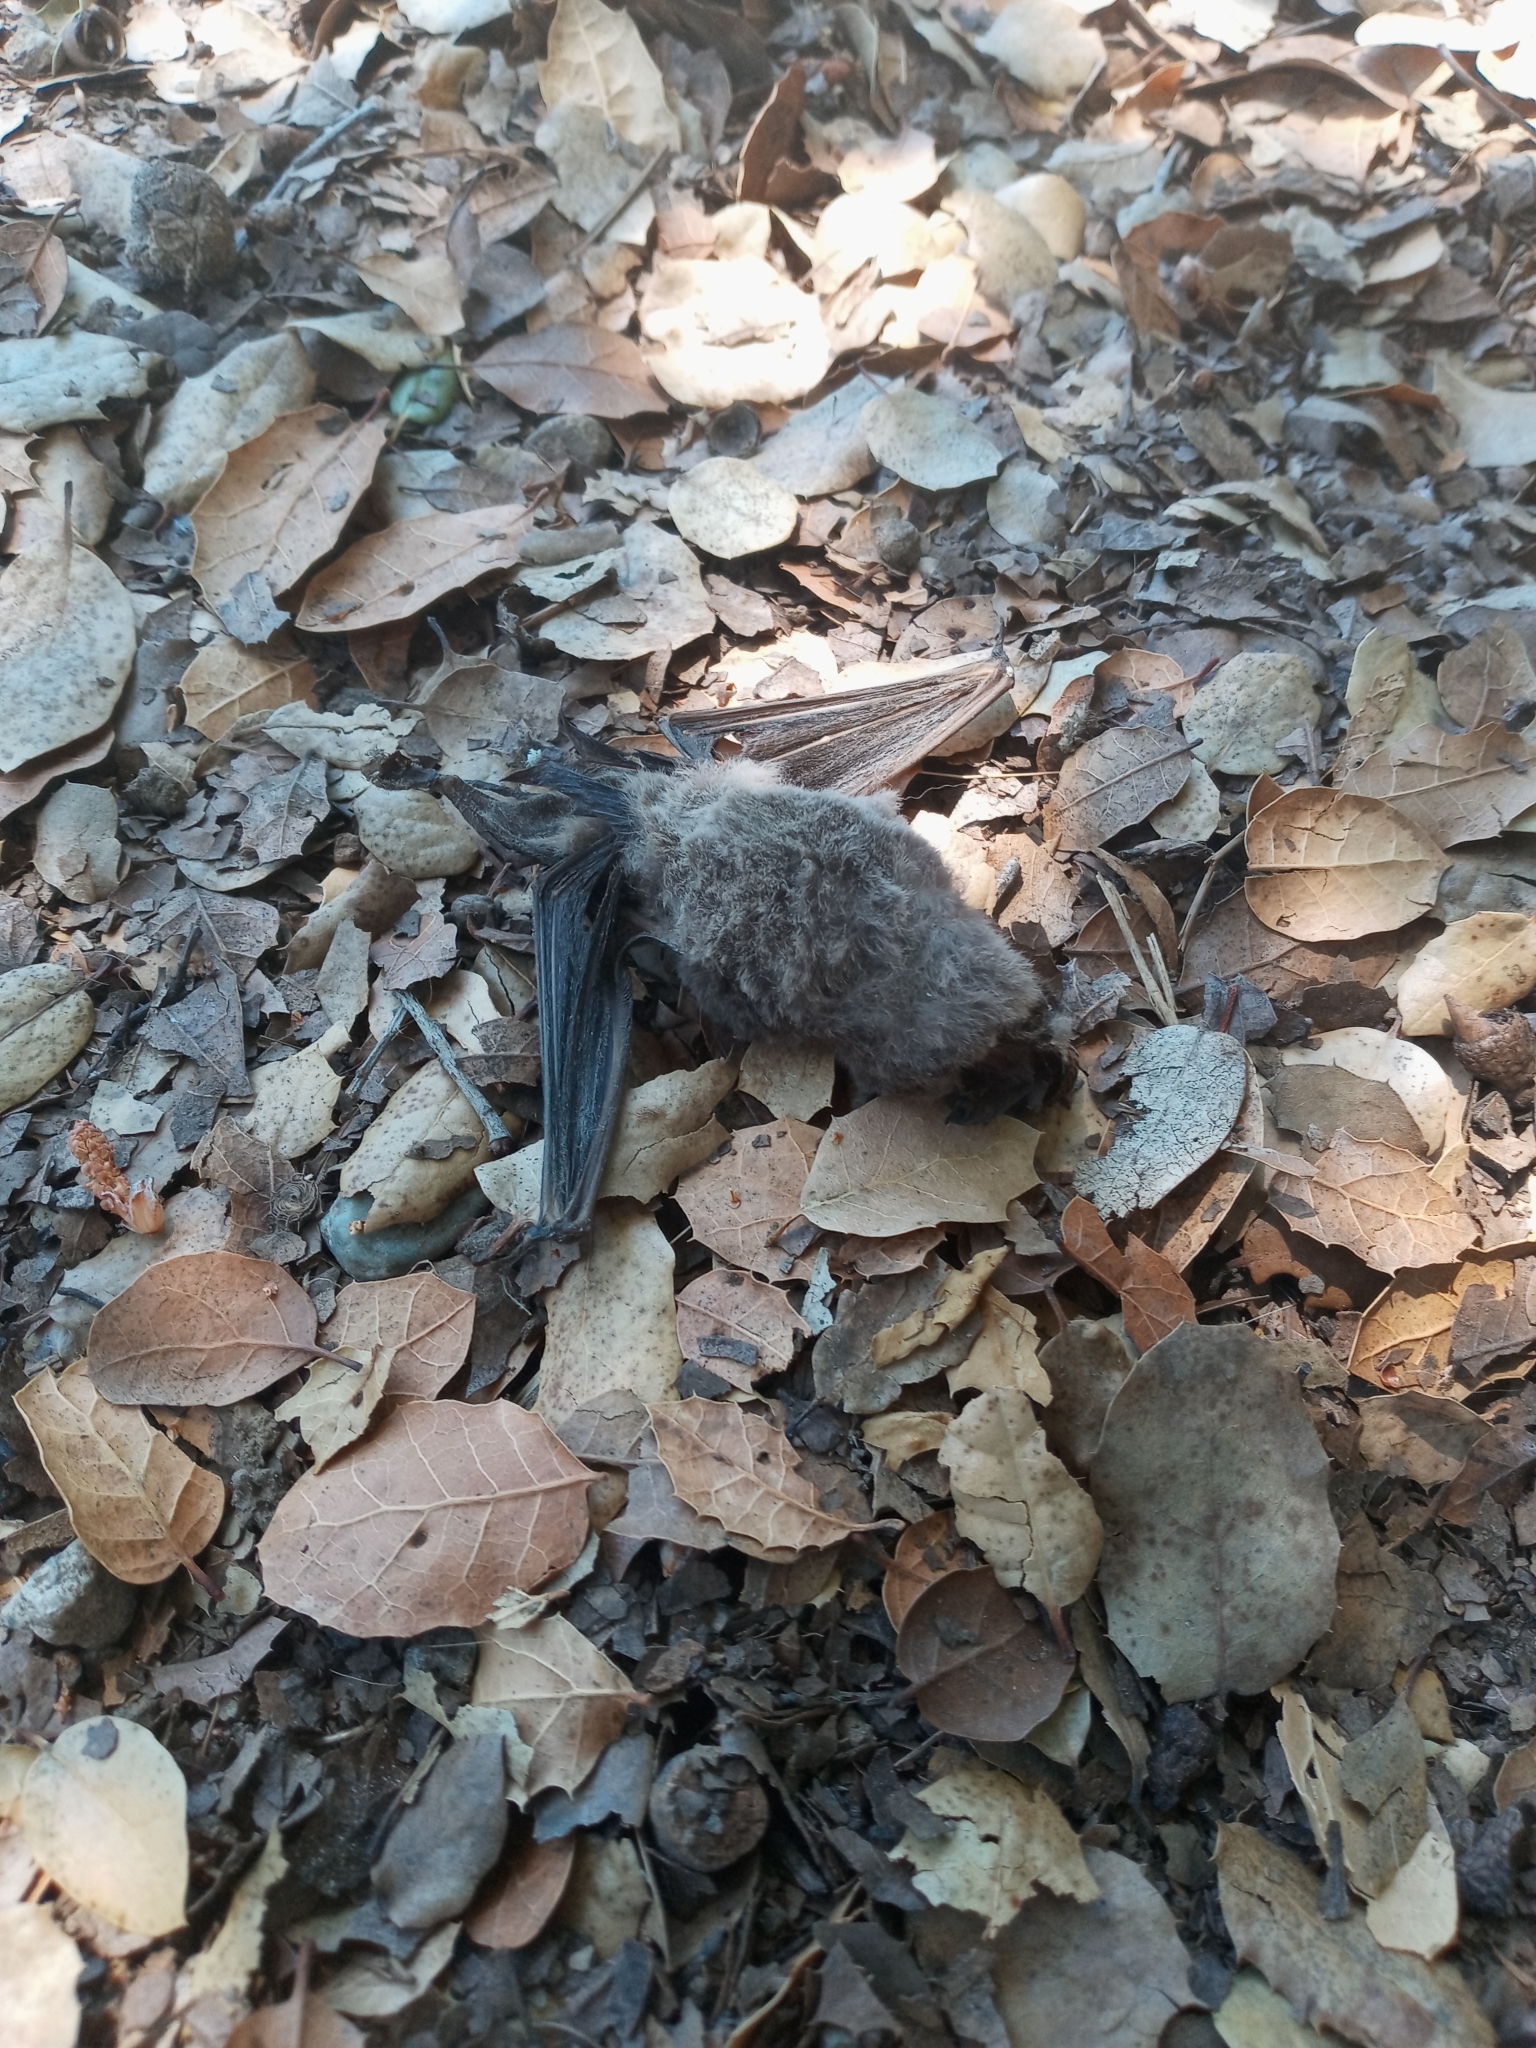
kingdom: Animalia
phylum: Chordata
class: Mammalia
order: Chiroptera
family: Molossidae
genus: Tadarida
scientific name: Tadarida brasiliensis
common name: Mexican free-tailed bat
